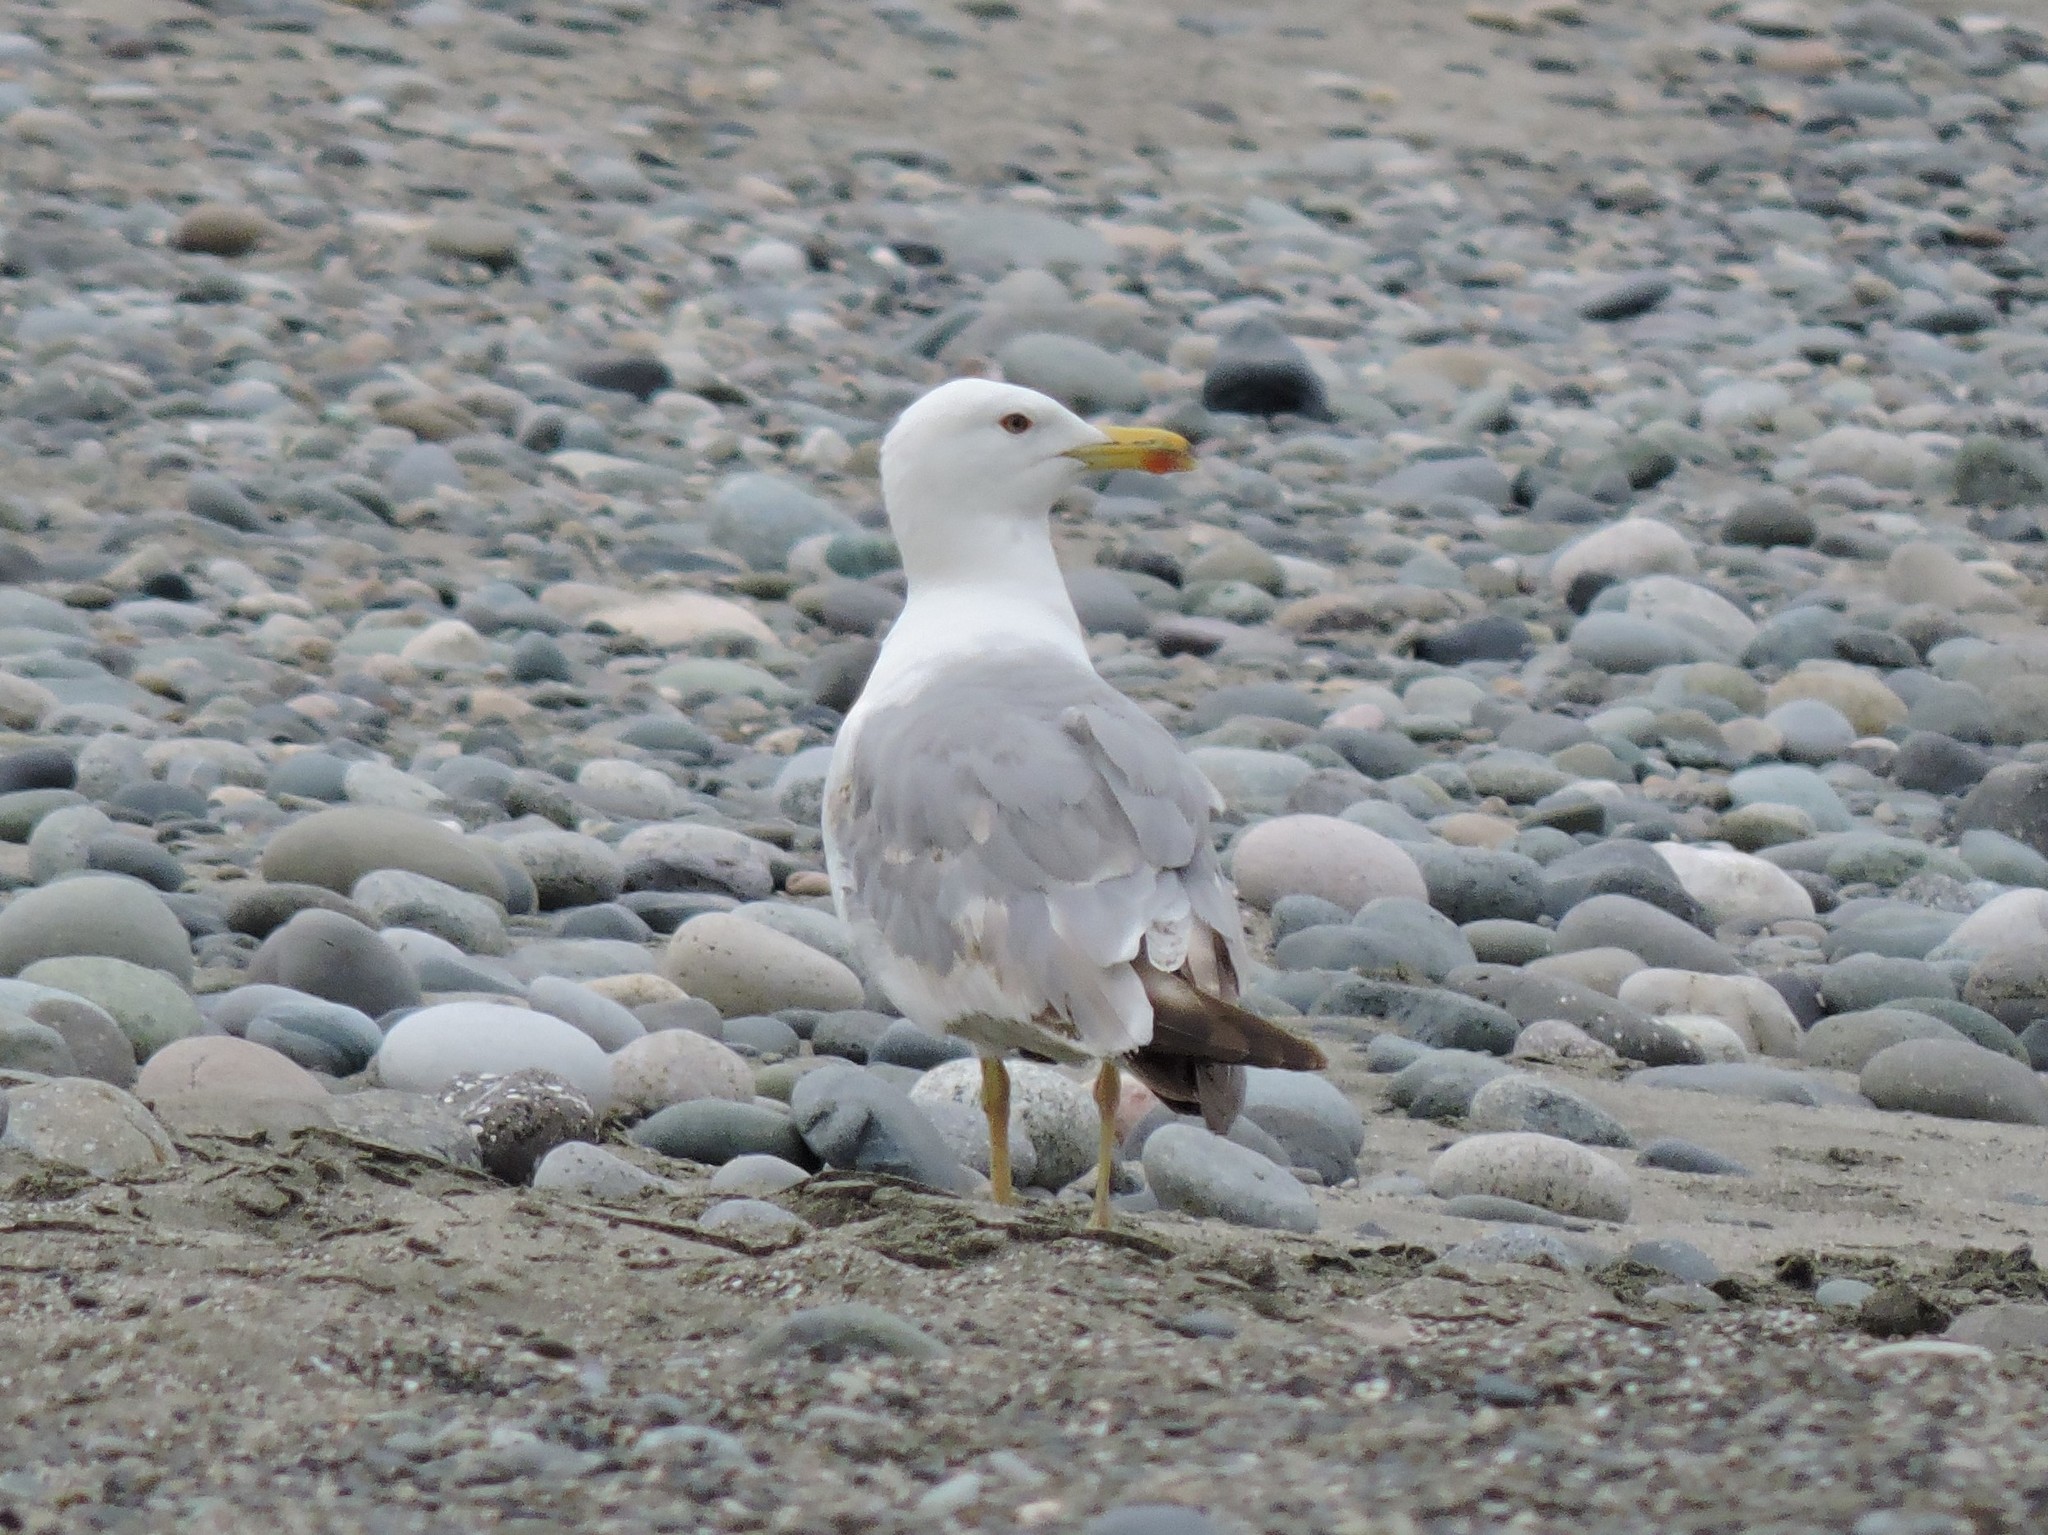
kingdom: Animalia
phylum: Chordata
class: Aves
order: Charadriiformes
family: Laridae
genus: Larus
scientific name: Larus michahellis
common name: Yellow-legged gull
